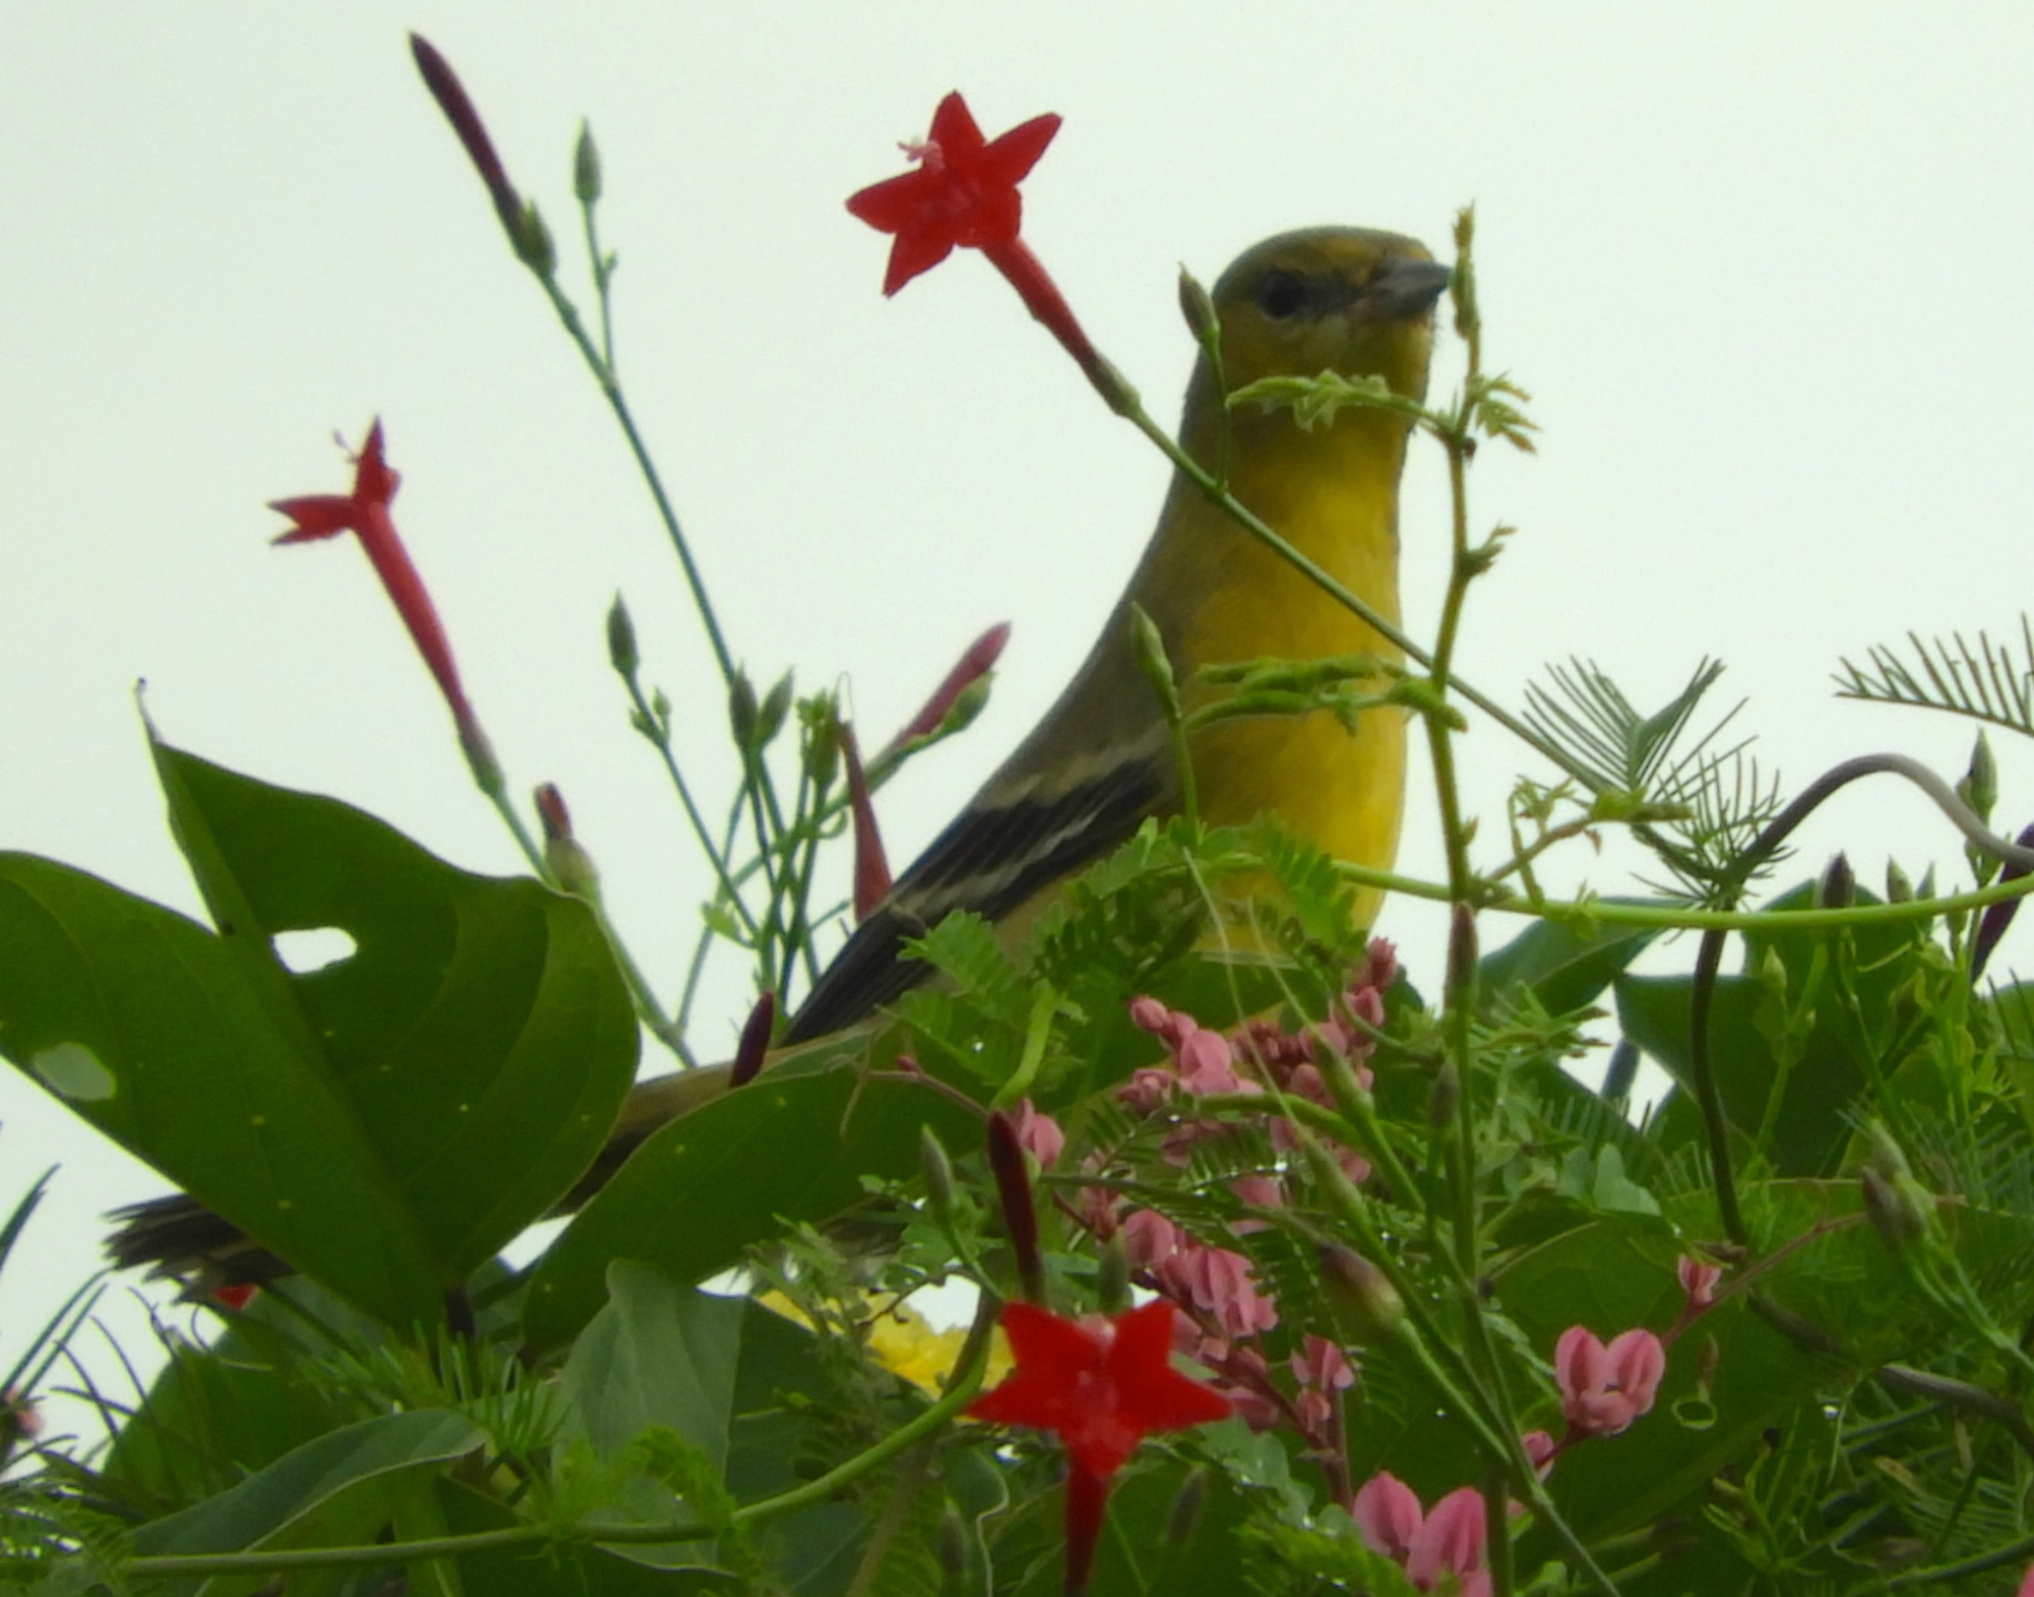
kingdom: Plantae
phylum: Tracheophyta
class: Magnoliopsida
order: Solanales
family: Convolvulaceae
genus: Ipomoea
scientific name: Ipomoea quamoclit
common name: Cypress vine
